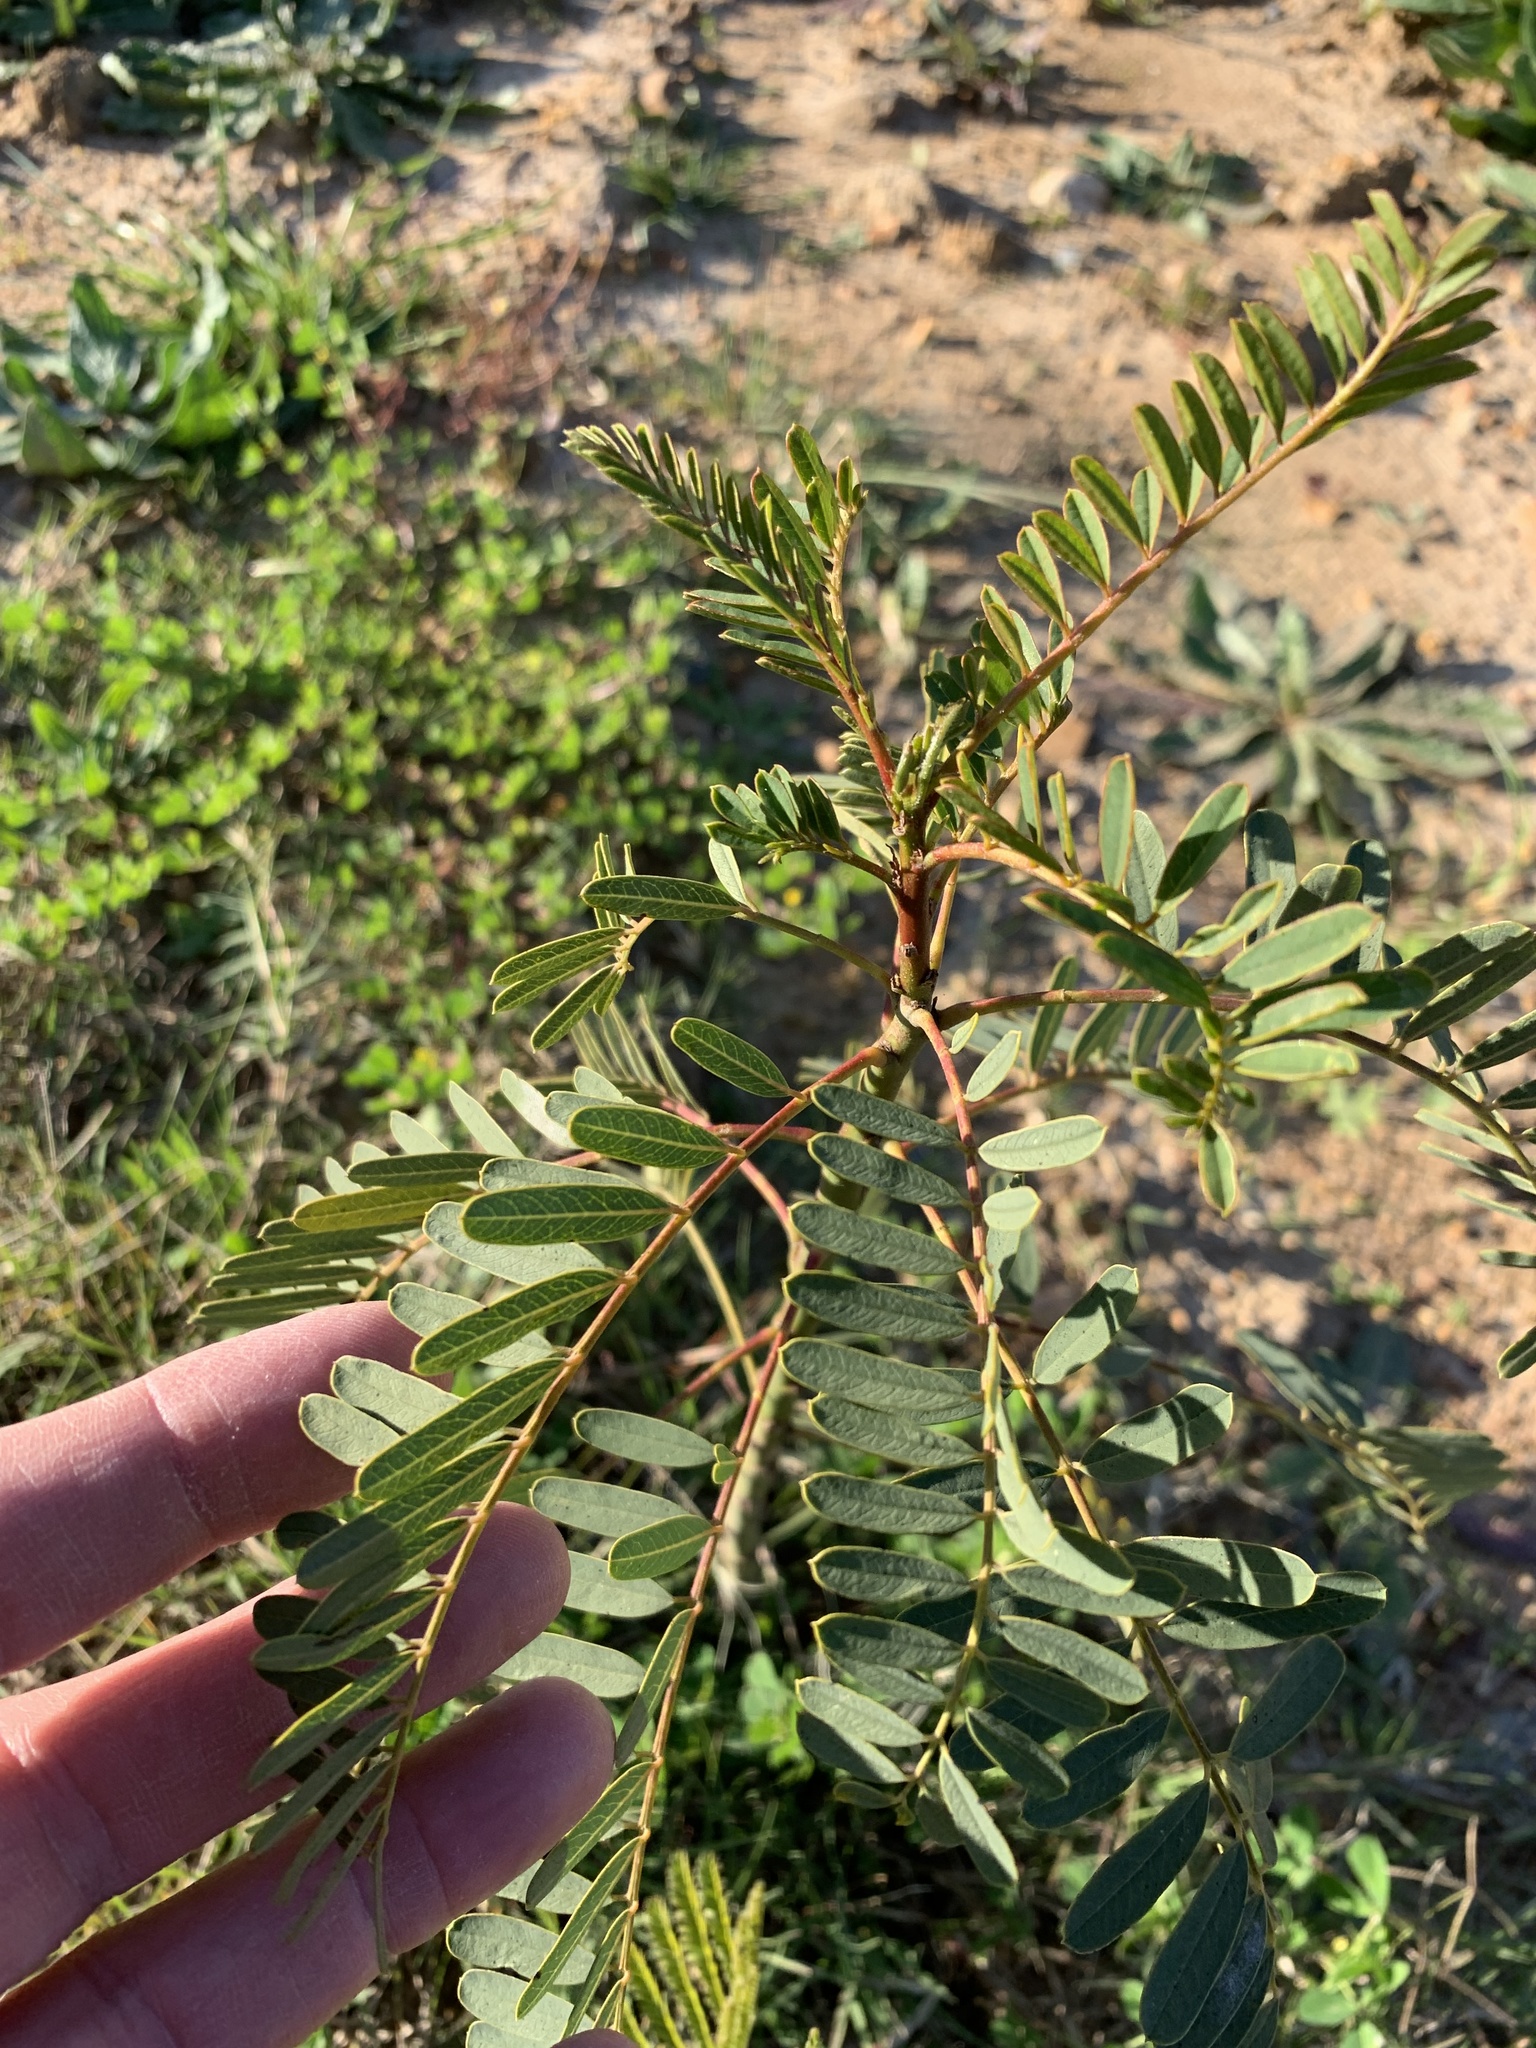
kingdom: Plantae
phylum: Tracheophyta
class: Magnoliopsida
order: Fabales
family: Fabaceae
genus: Sesbania
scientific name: Sesbania punicea
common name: Rattlebox
